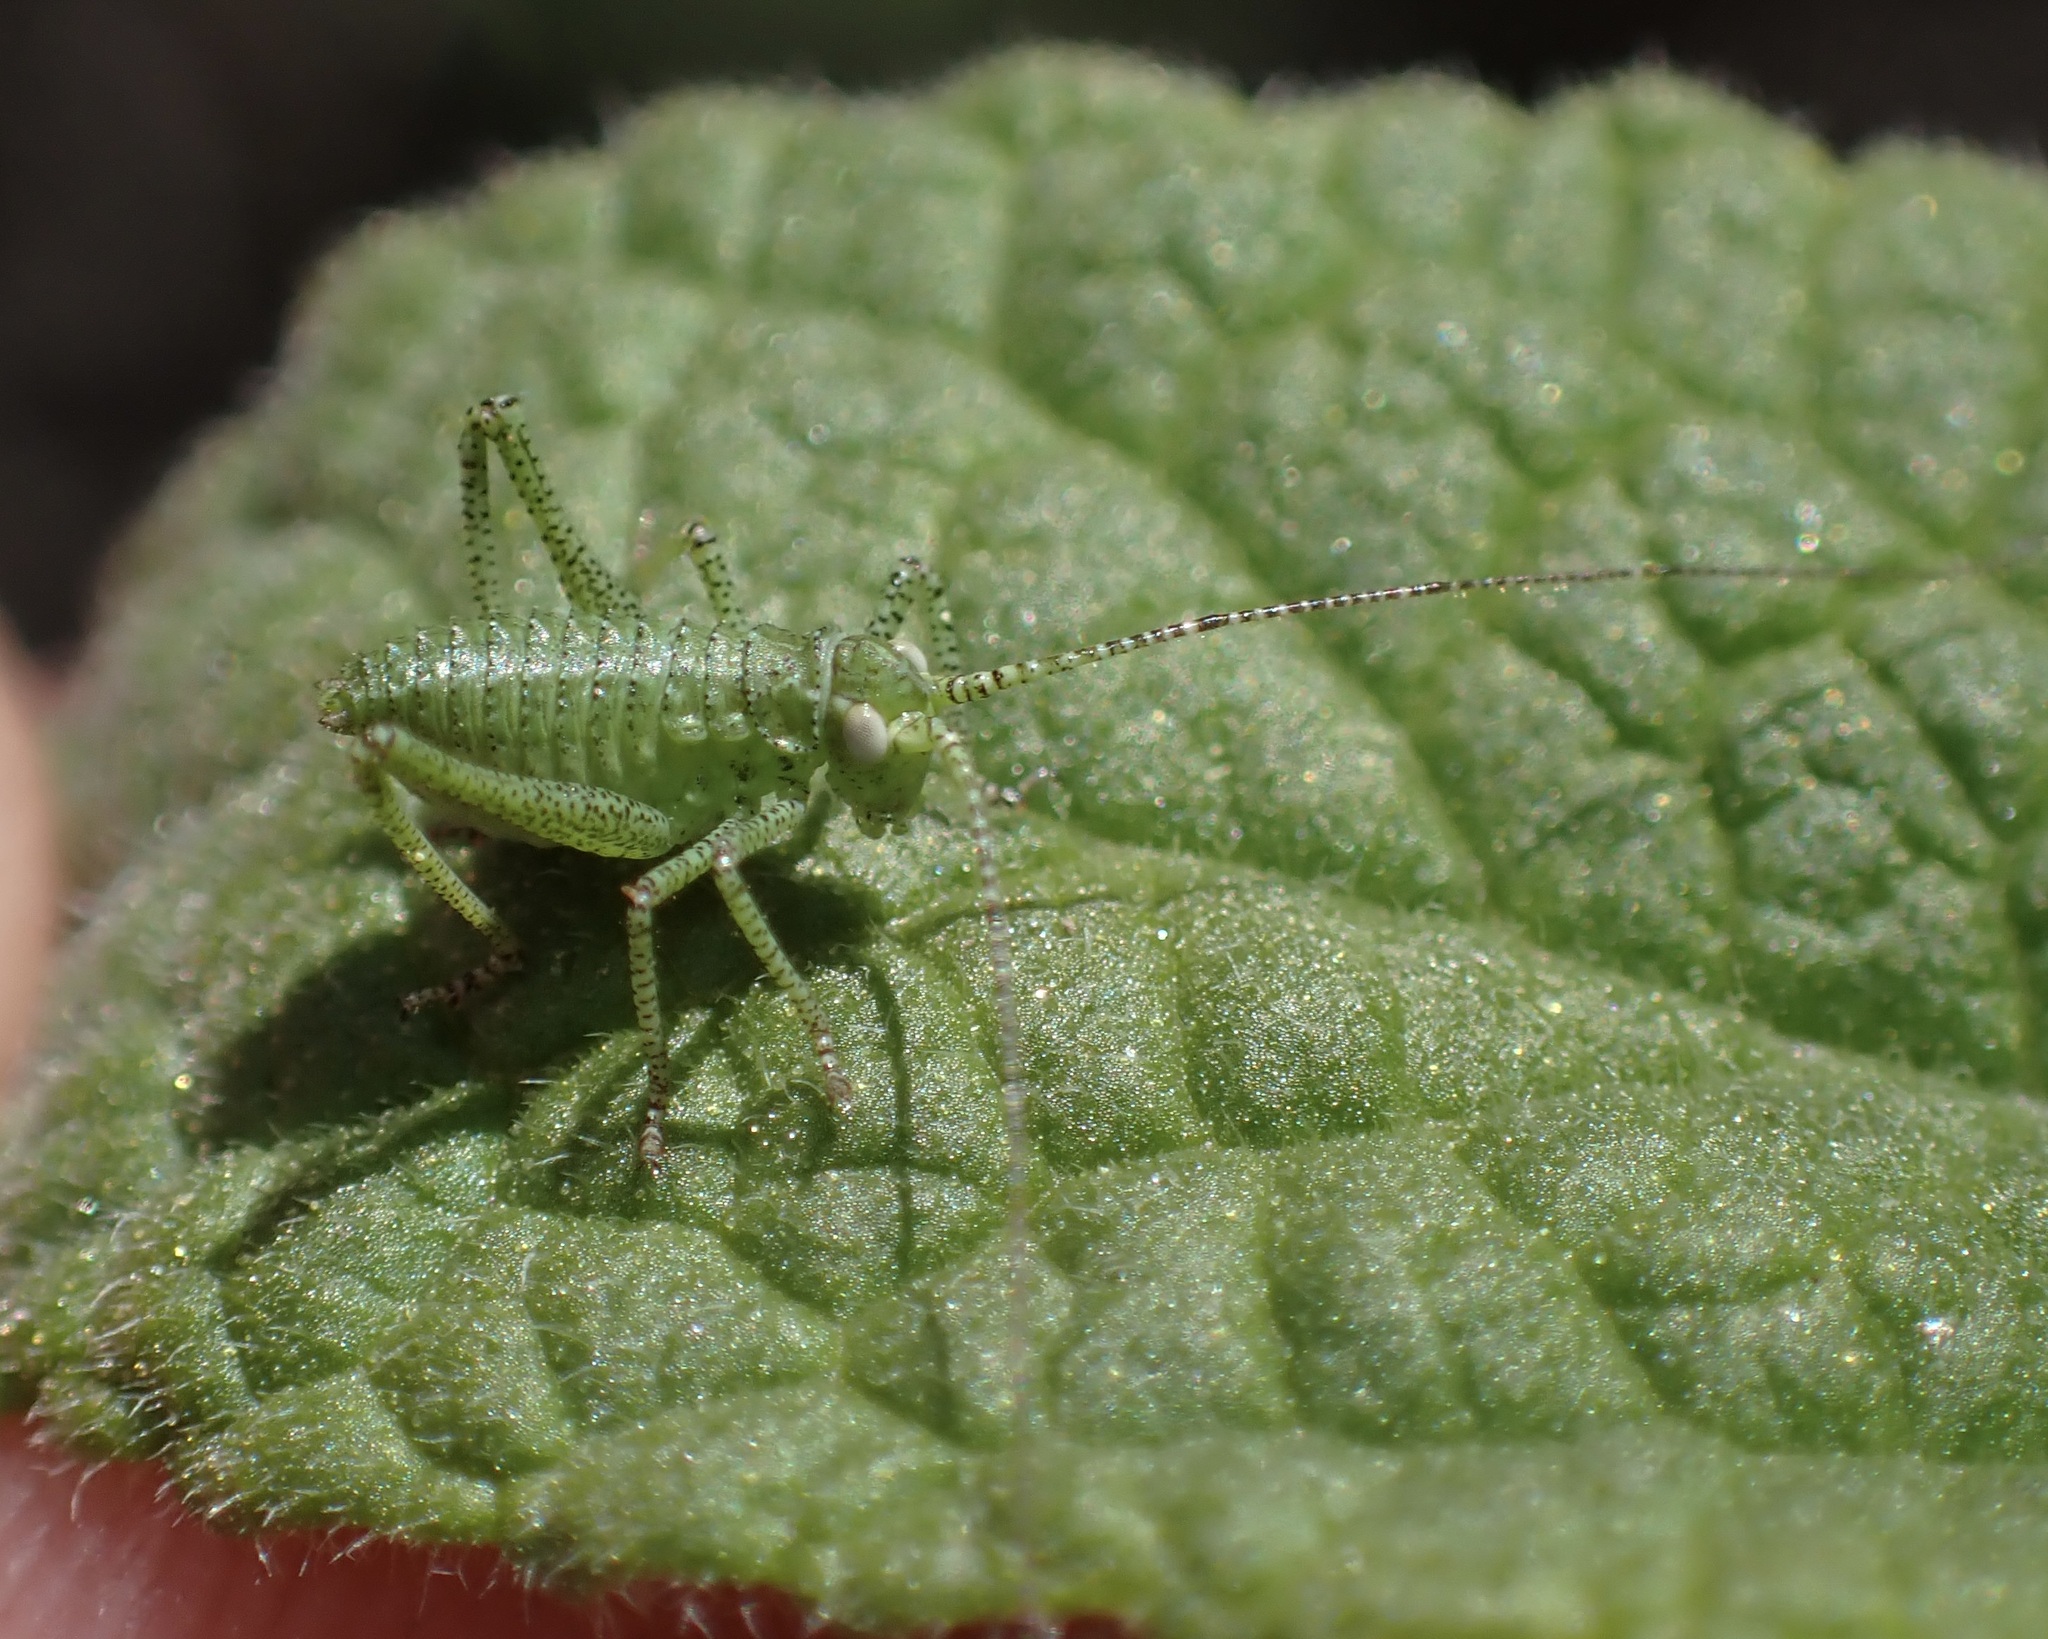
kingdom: Animalia
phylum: Arthropoda
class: Insecta
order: Orthoptera
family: Tettigoniidae
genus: Platylyra
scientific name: Platylyra californica
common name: Chaparral false katydid
